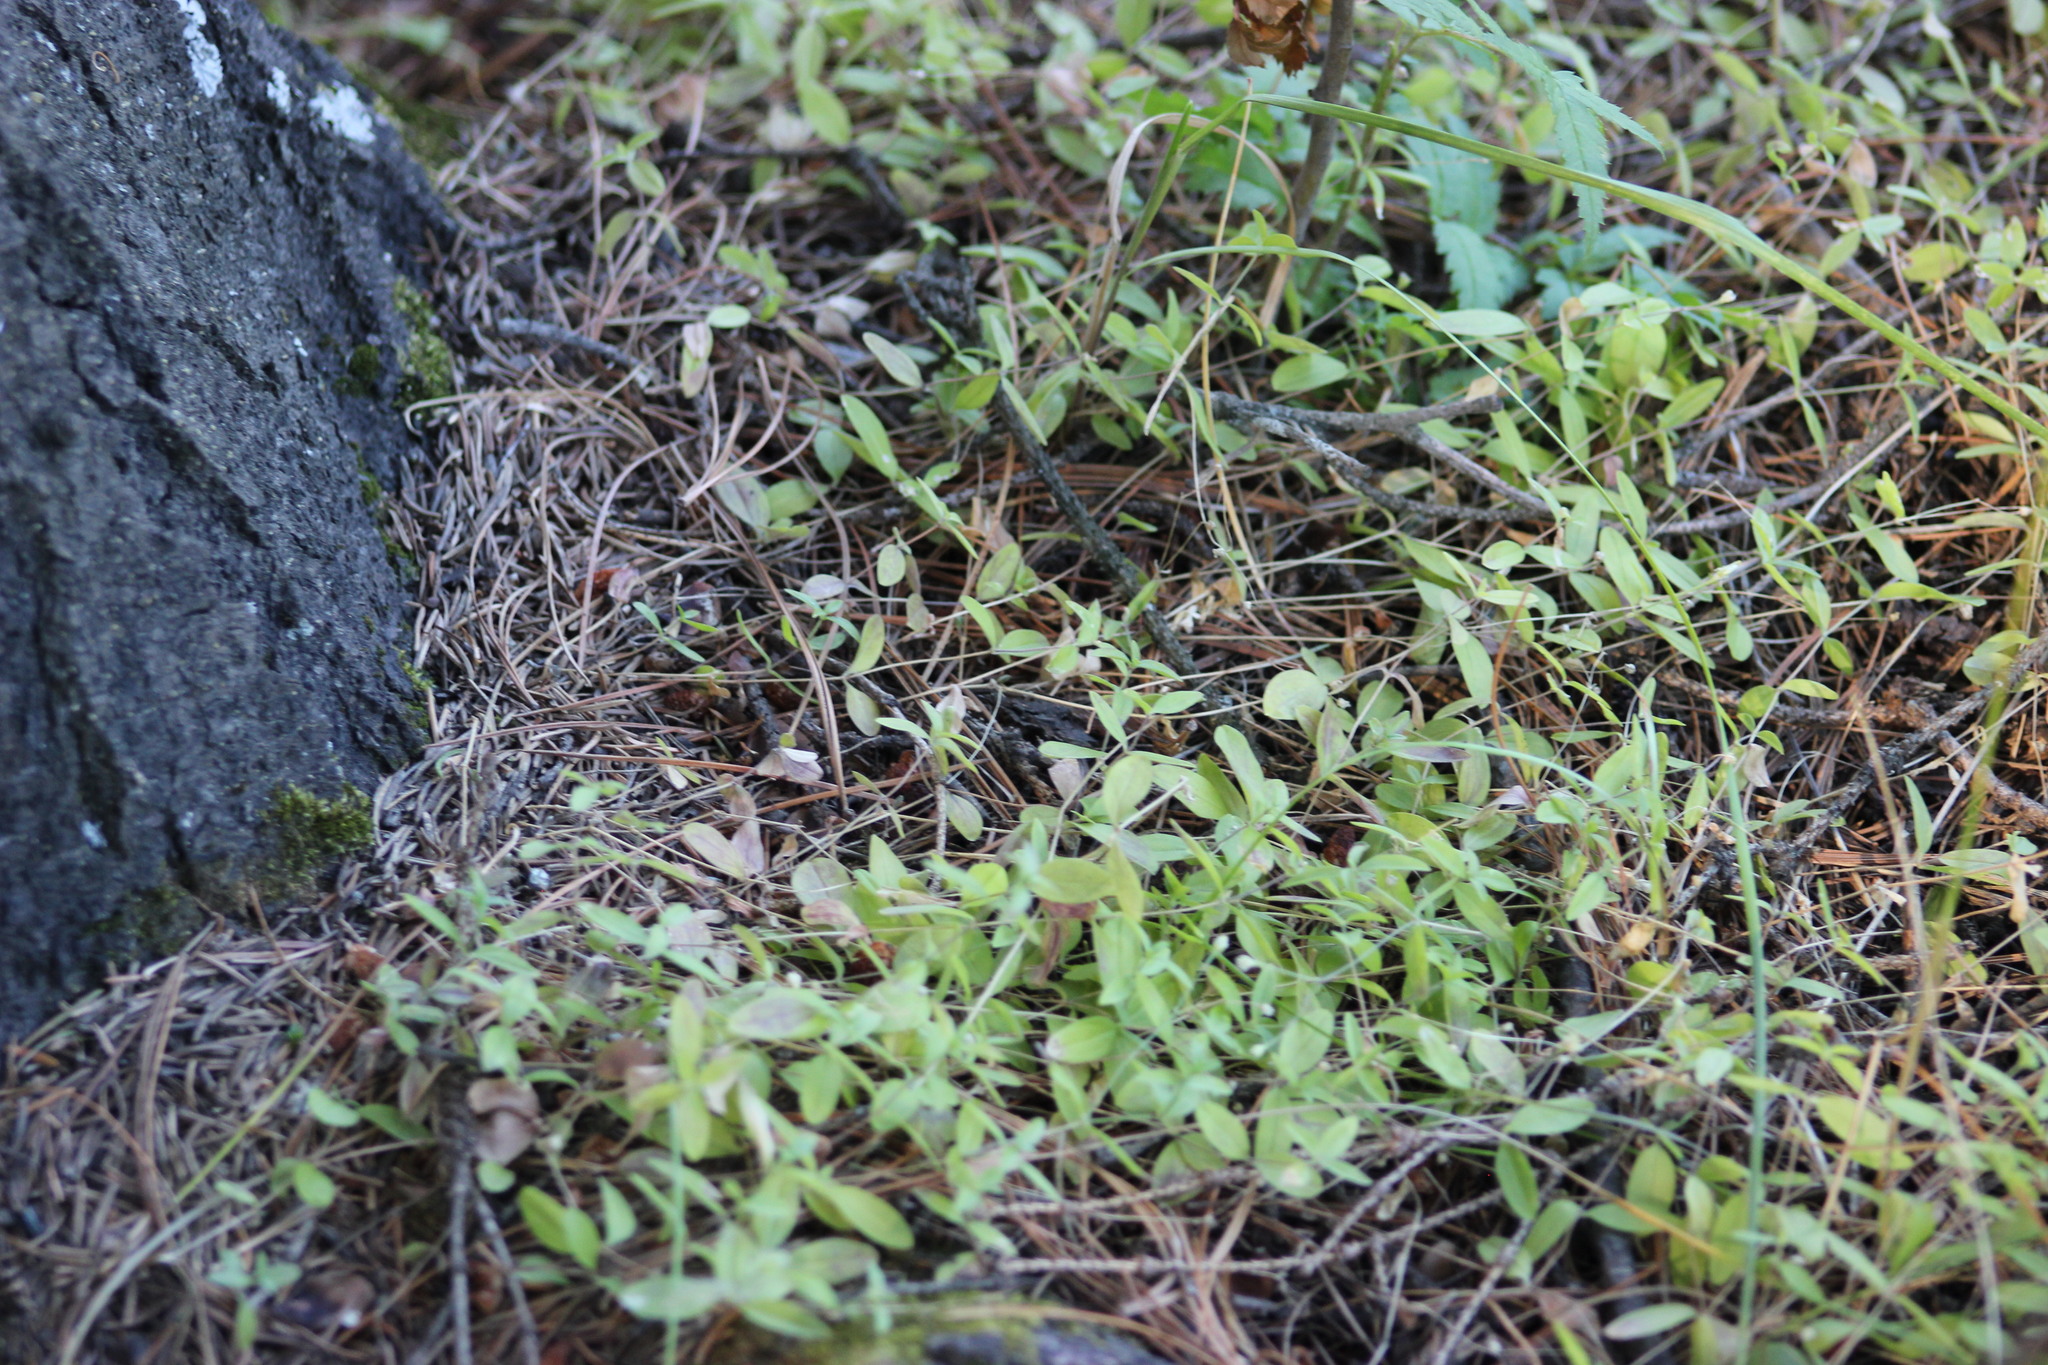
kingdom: Plantae
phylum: Tracheophyta
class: Magnoliopsida
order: Caryophyllales
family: Caryophyllaceae
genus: Moehringia
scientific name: Moehringia lateriflora
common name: Blunt-leaved sandwort
